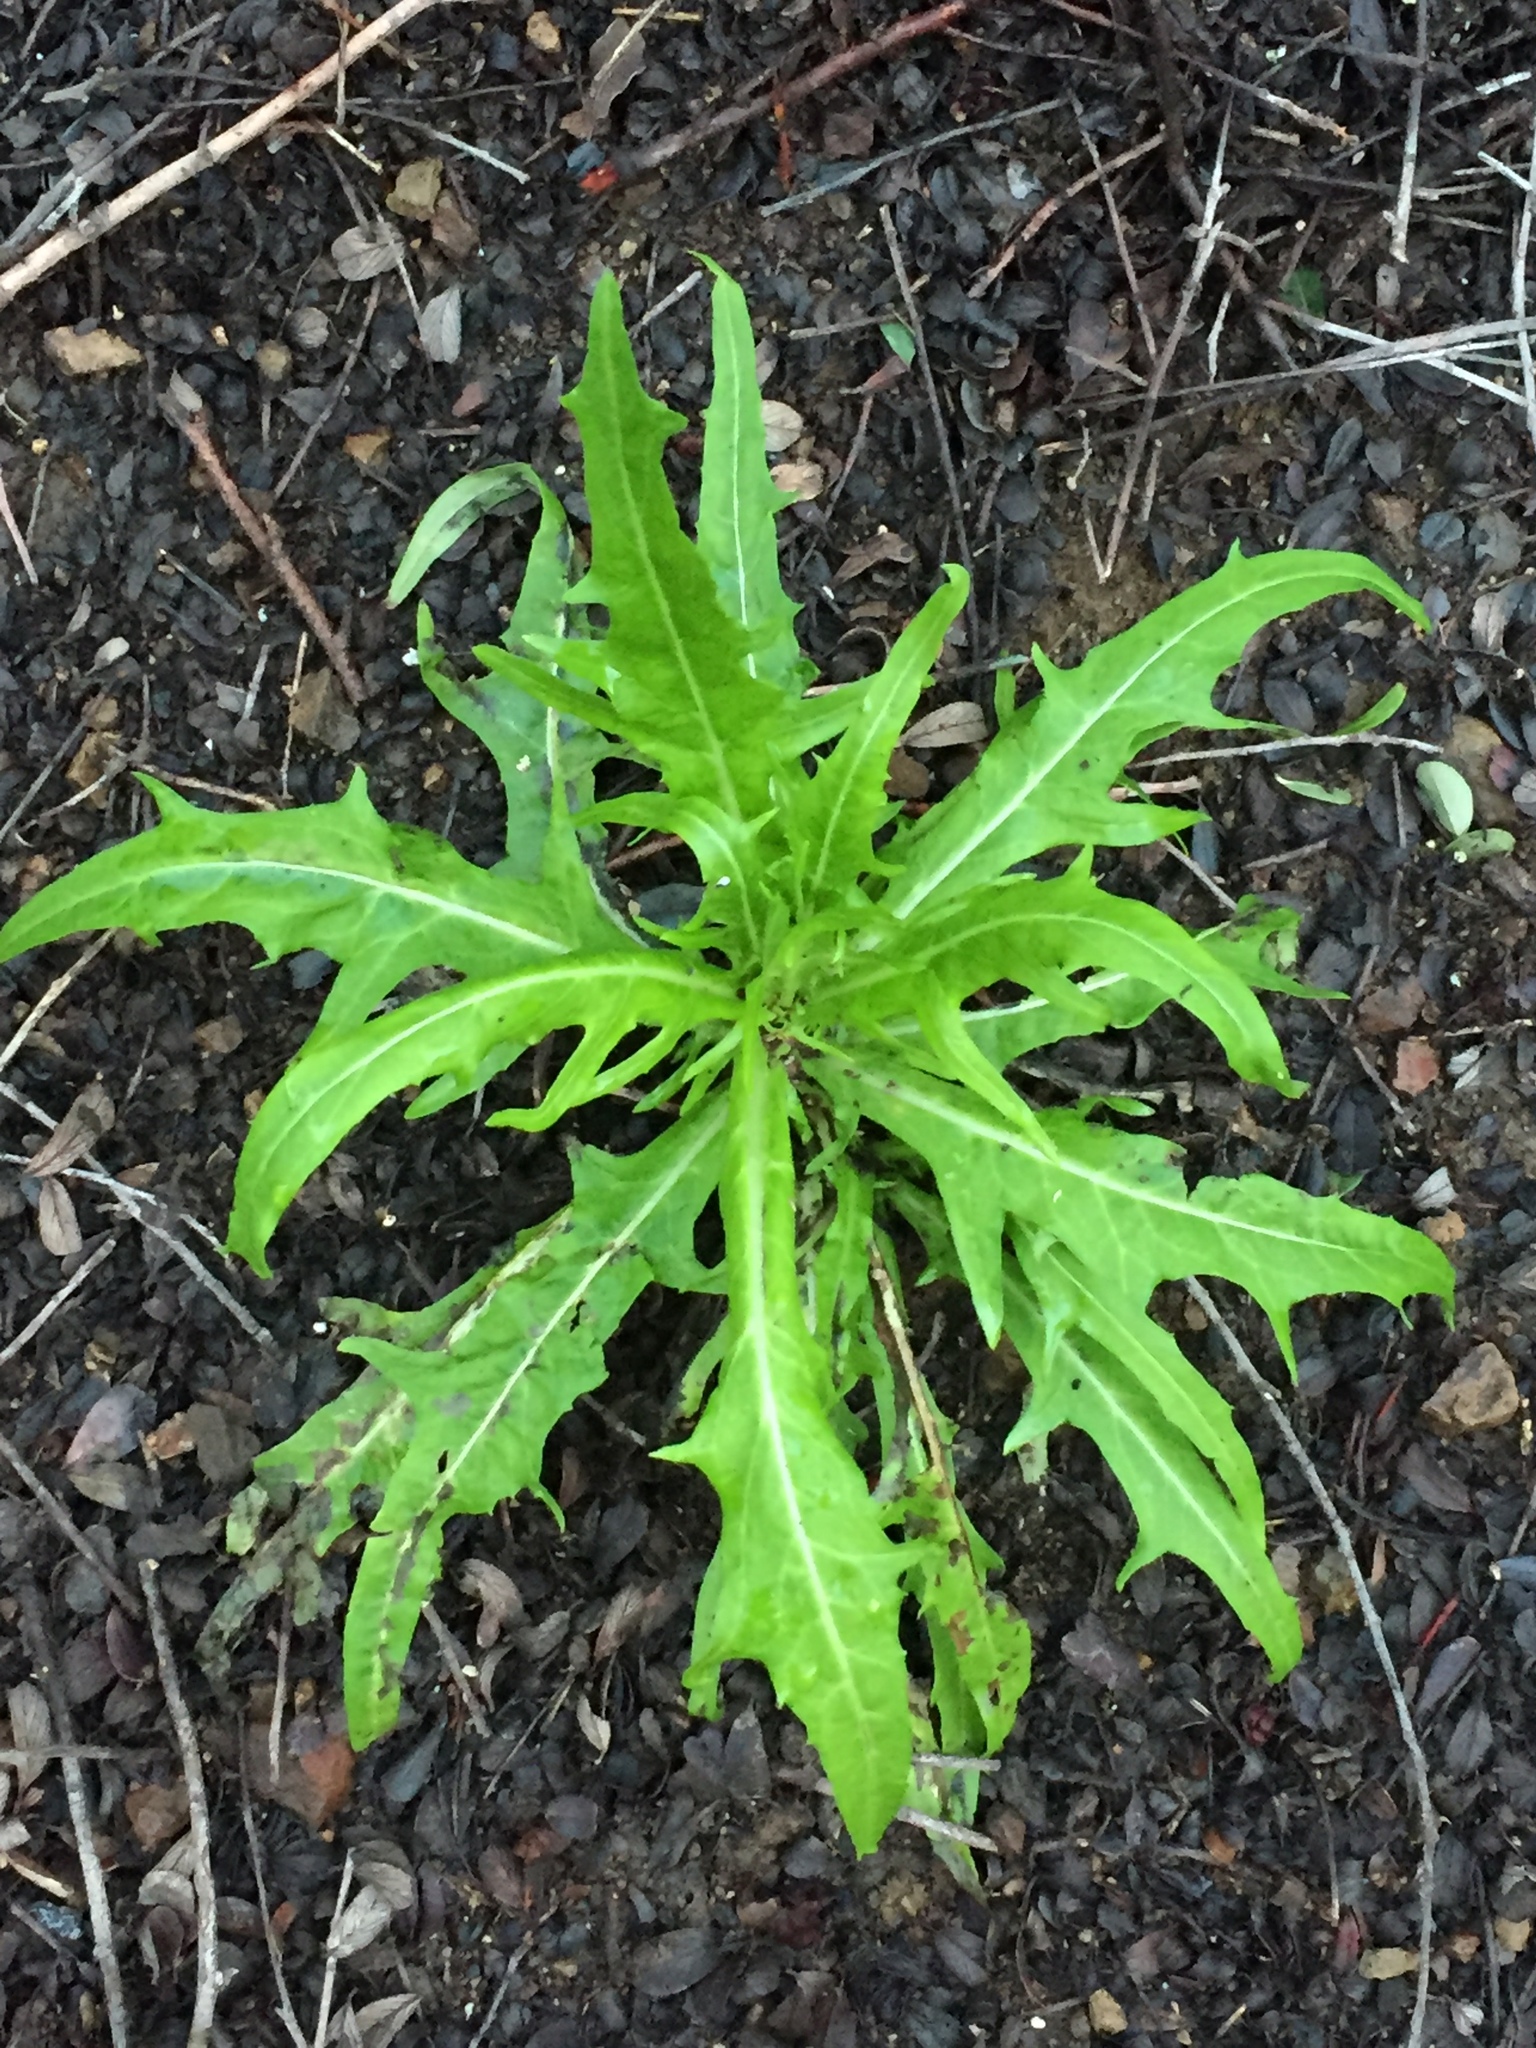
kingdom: Plantae
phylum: Tracheophyta
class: Magnoliopsida
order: Asterales
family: Asteraceae
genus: Malacothrix
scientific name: Malacothrix saxatilis
